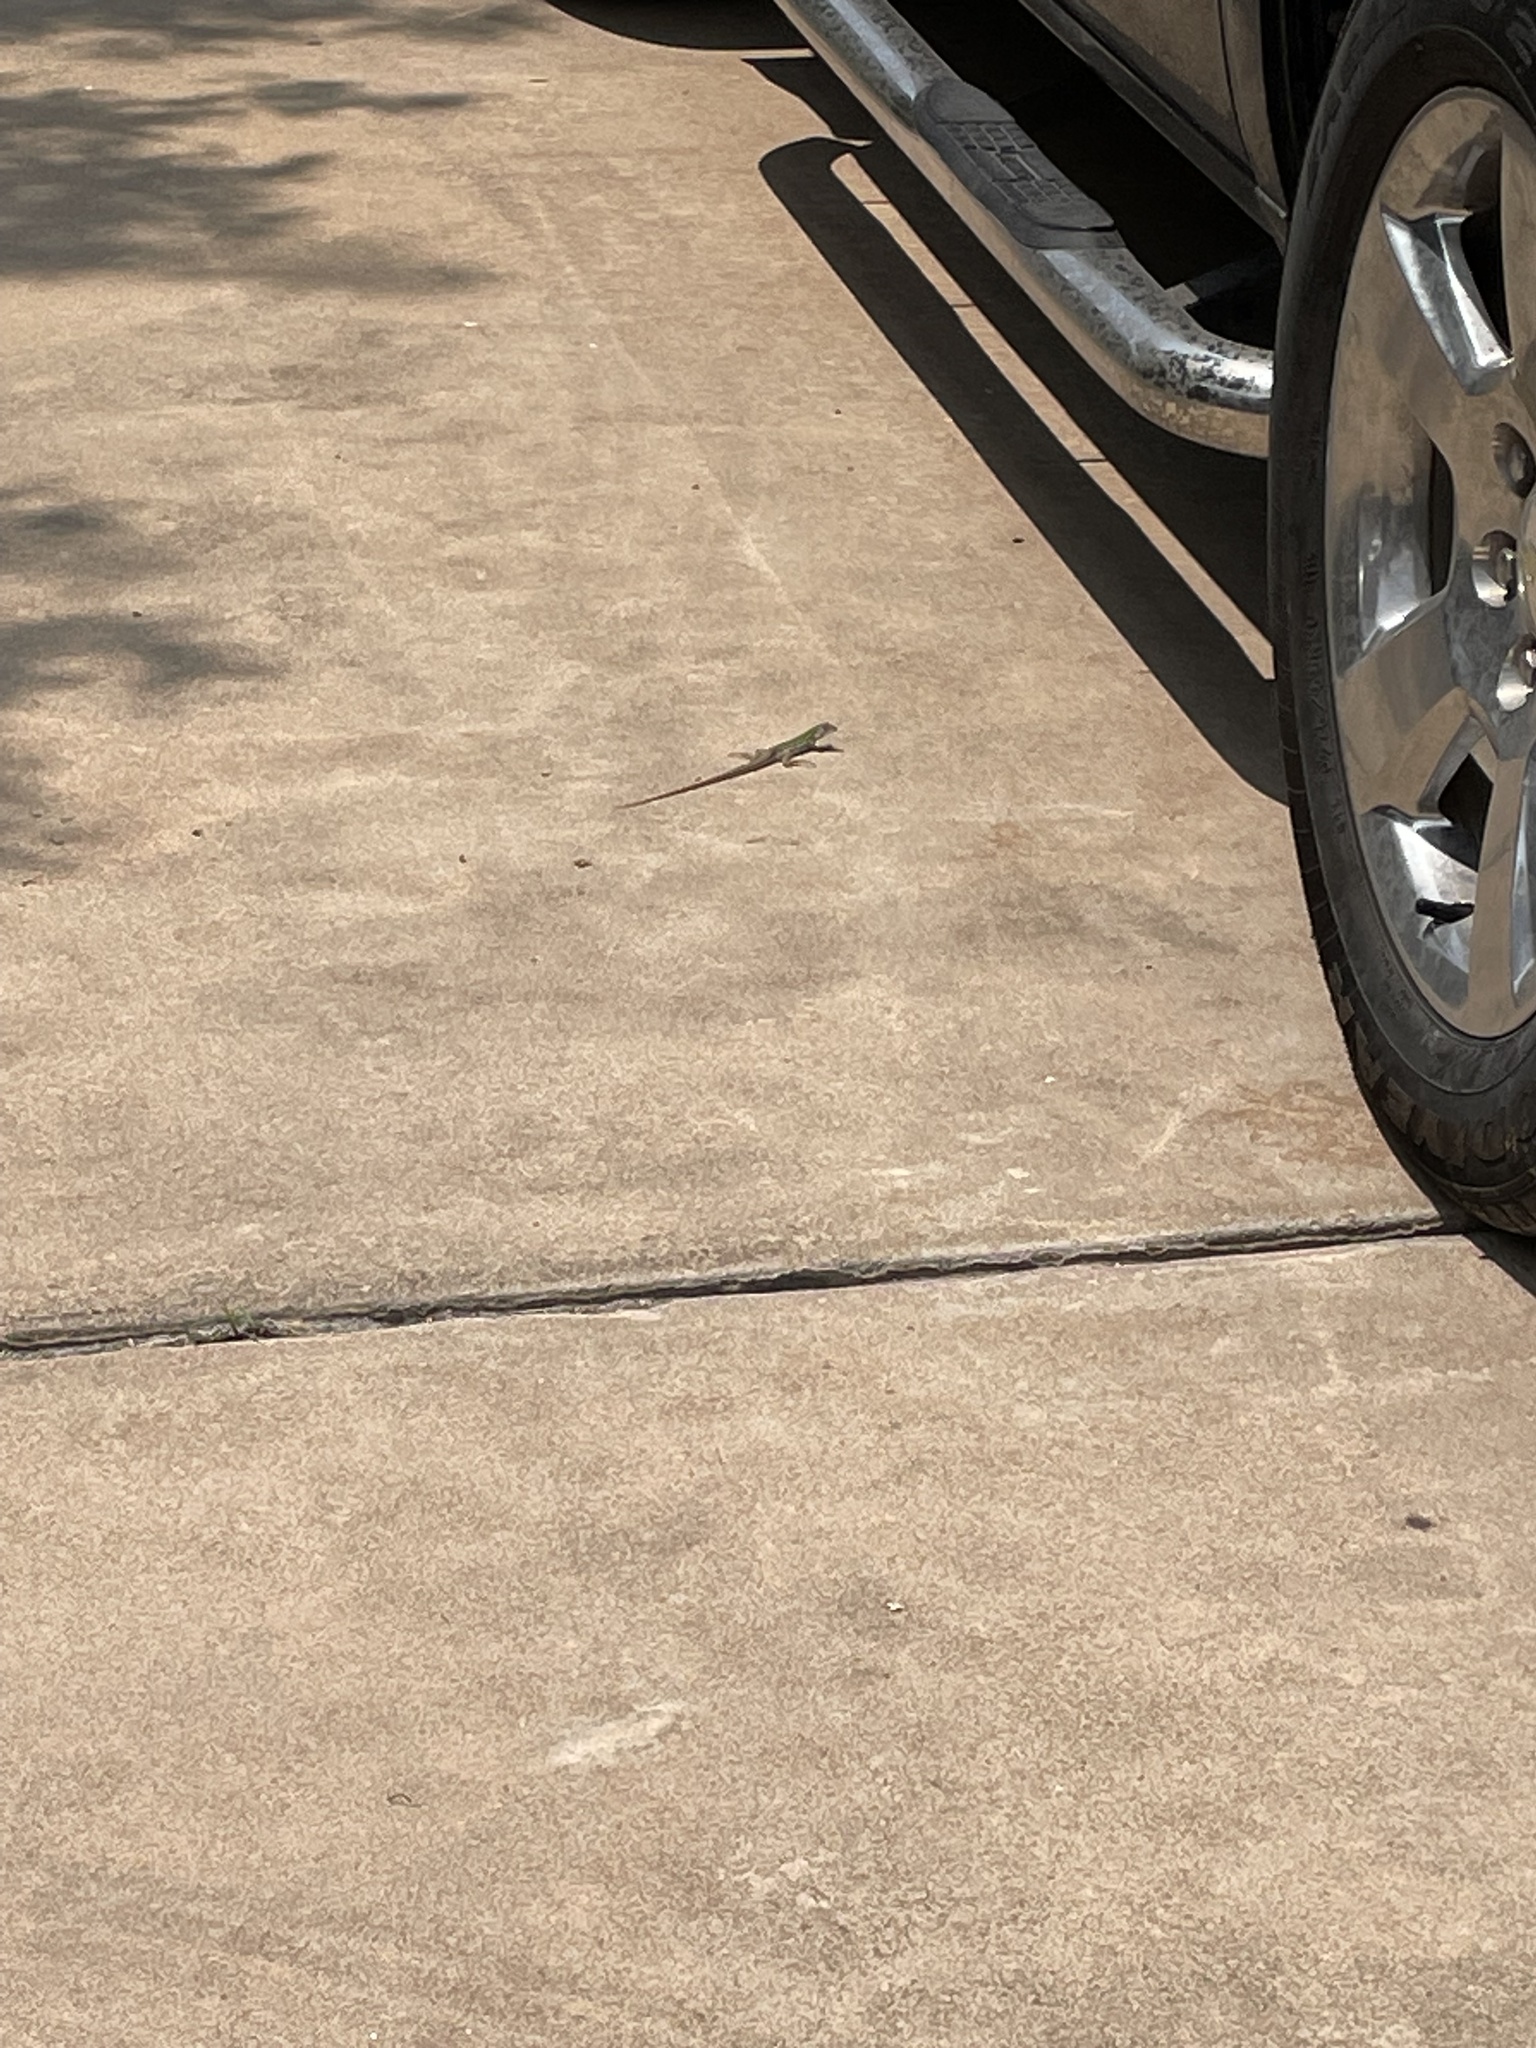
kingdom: Animalia
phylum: Chordata
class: Squamata
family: Teiidae
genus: Aspidoscelis
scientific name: Aspidoscelis gularis
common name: Eastern spotted whiptail
